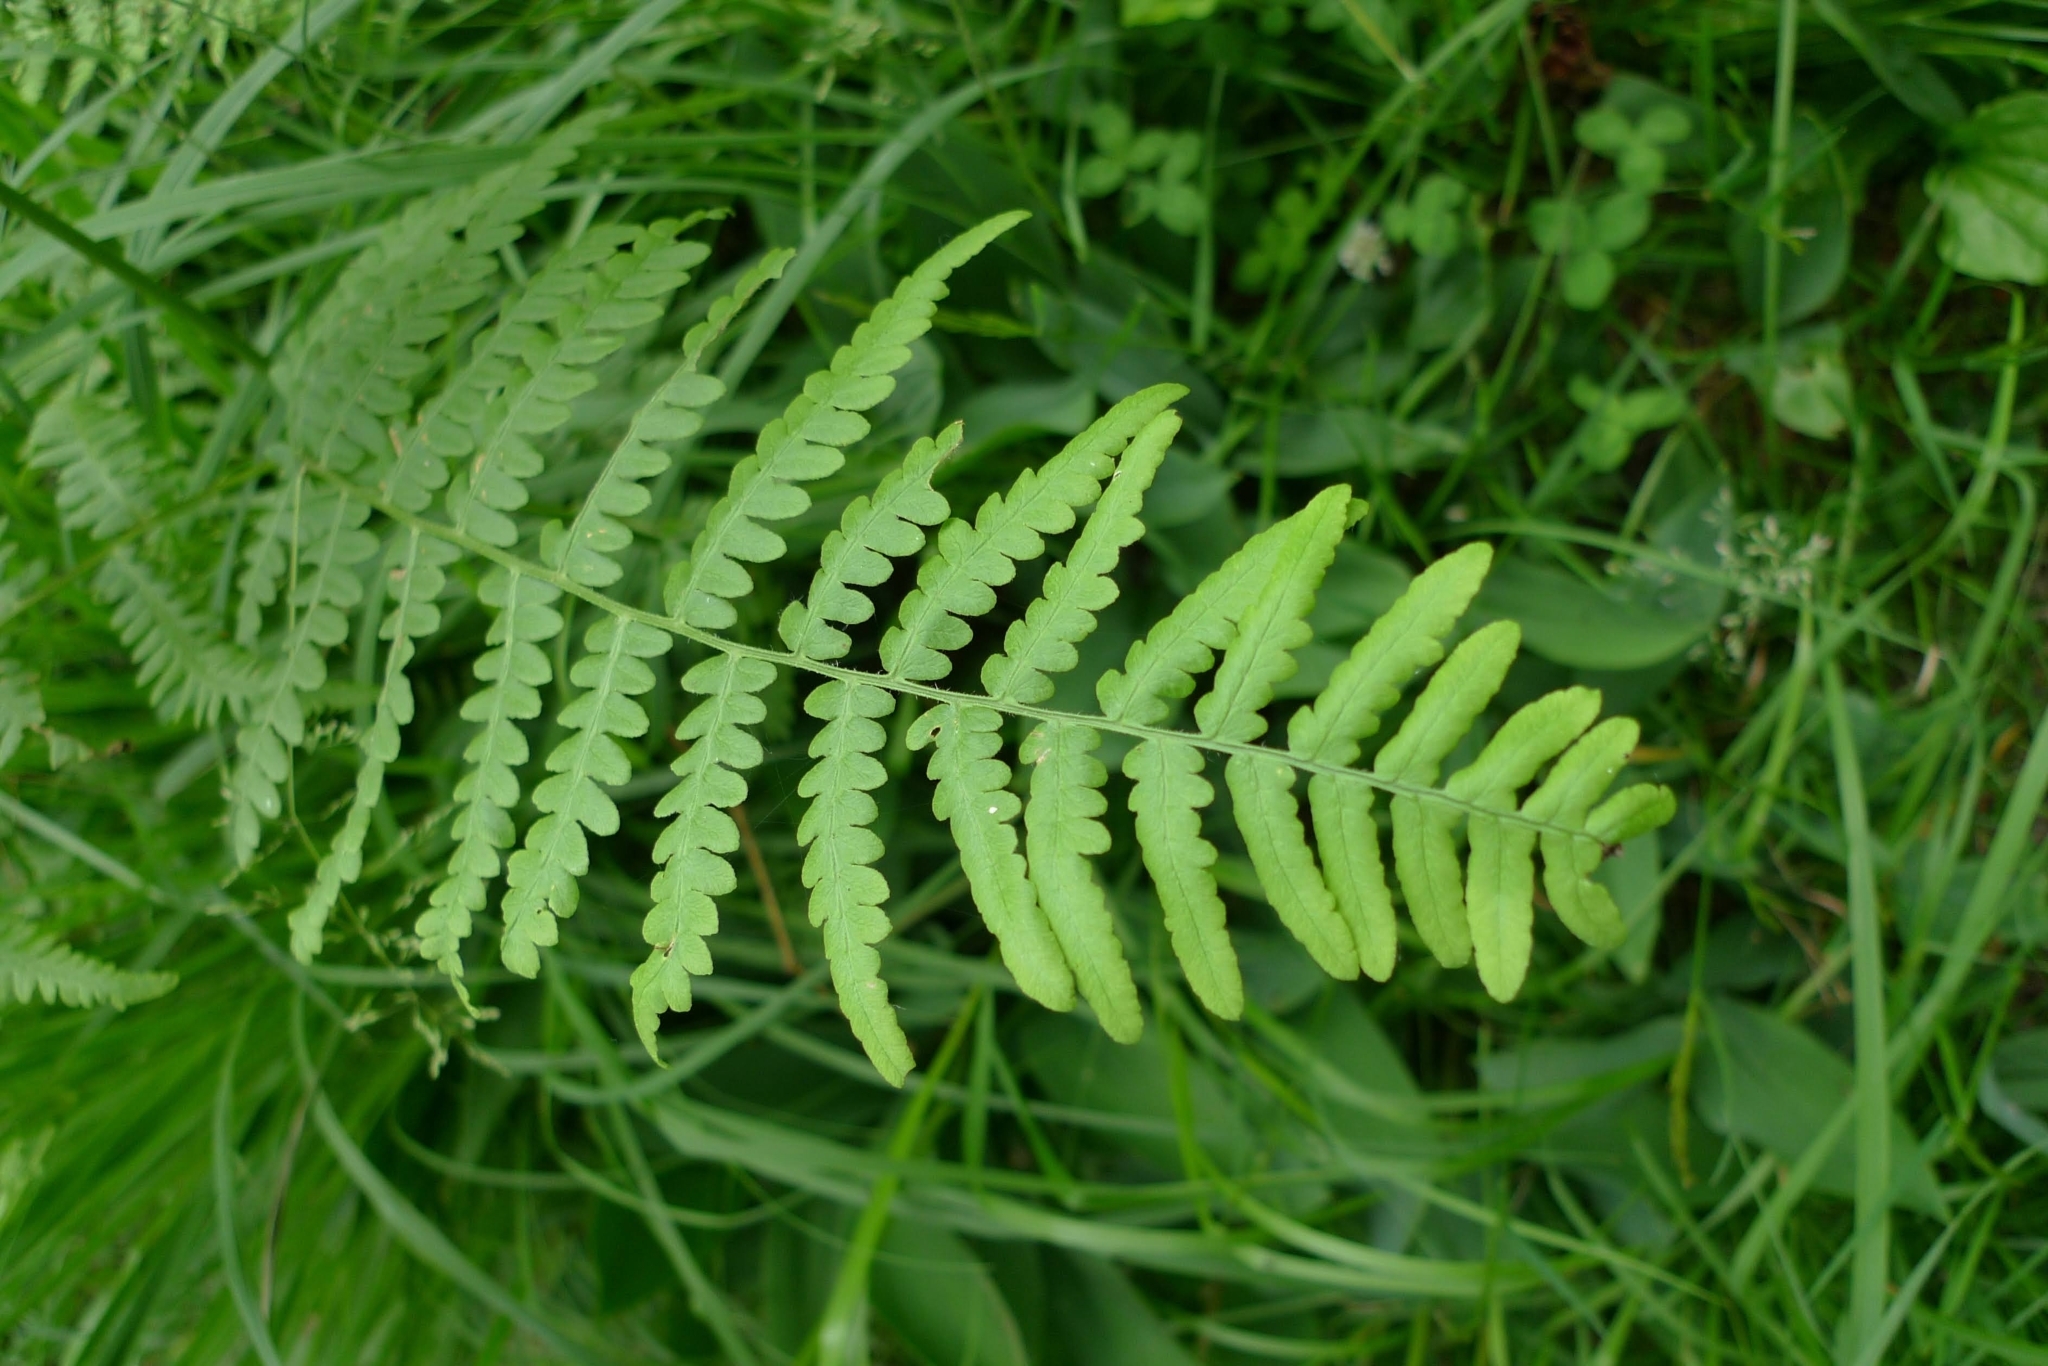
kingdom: Plantae
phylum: Tracheophyta
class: Polypodiopsida
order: Polypodiales
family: Dennstaedtiaceae
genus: Pteridium
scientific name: Pteridium aquilinum
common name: Bracken
